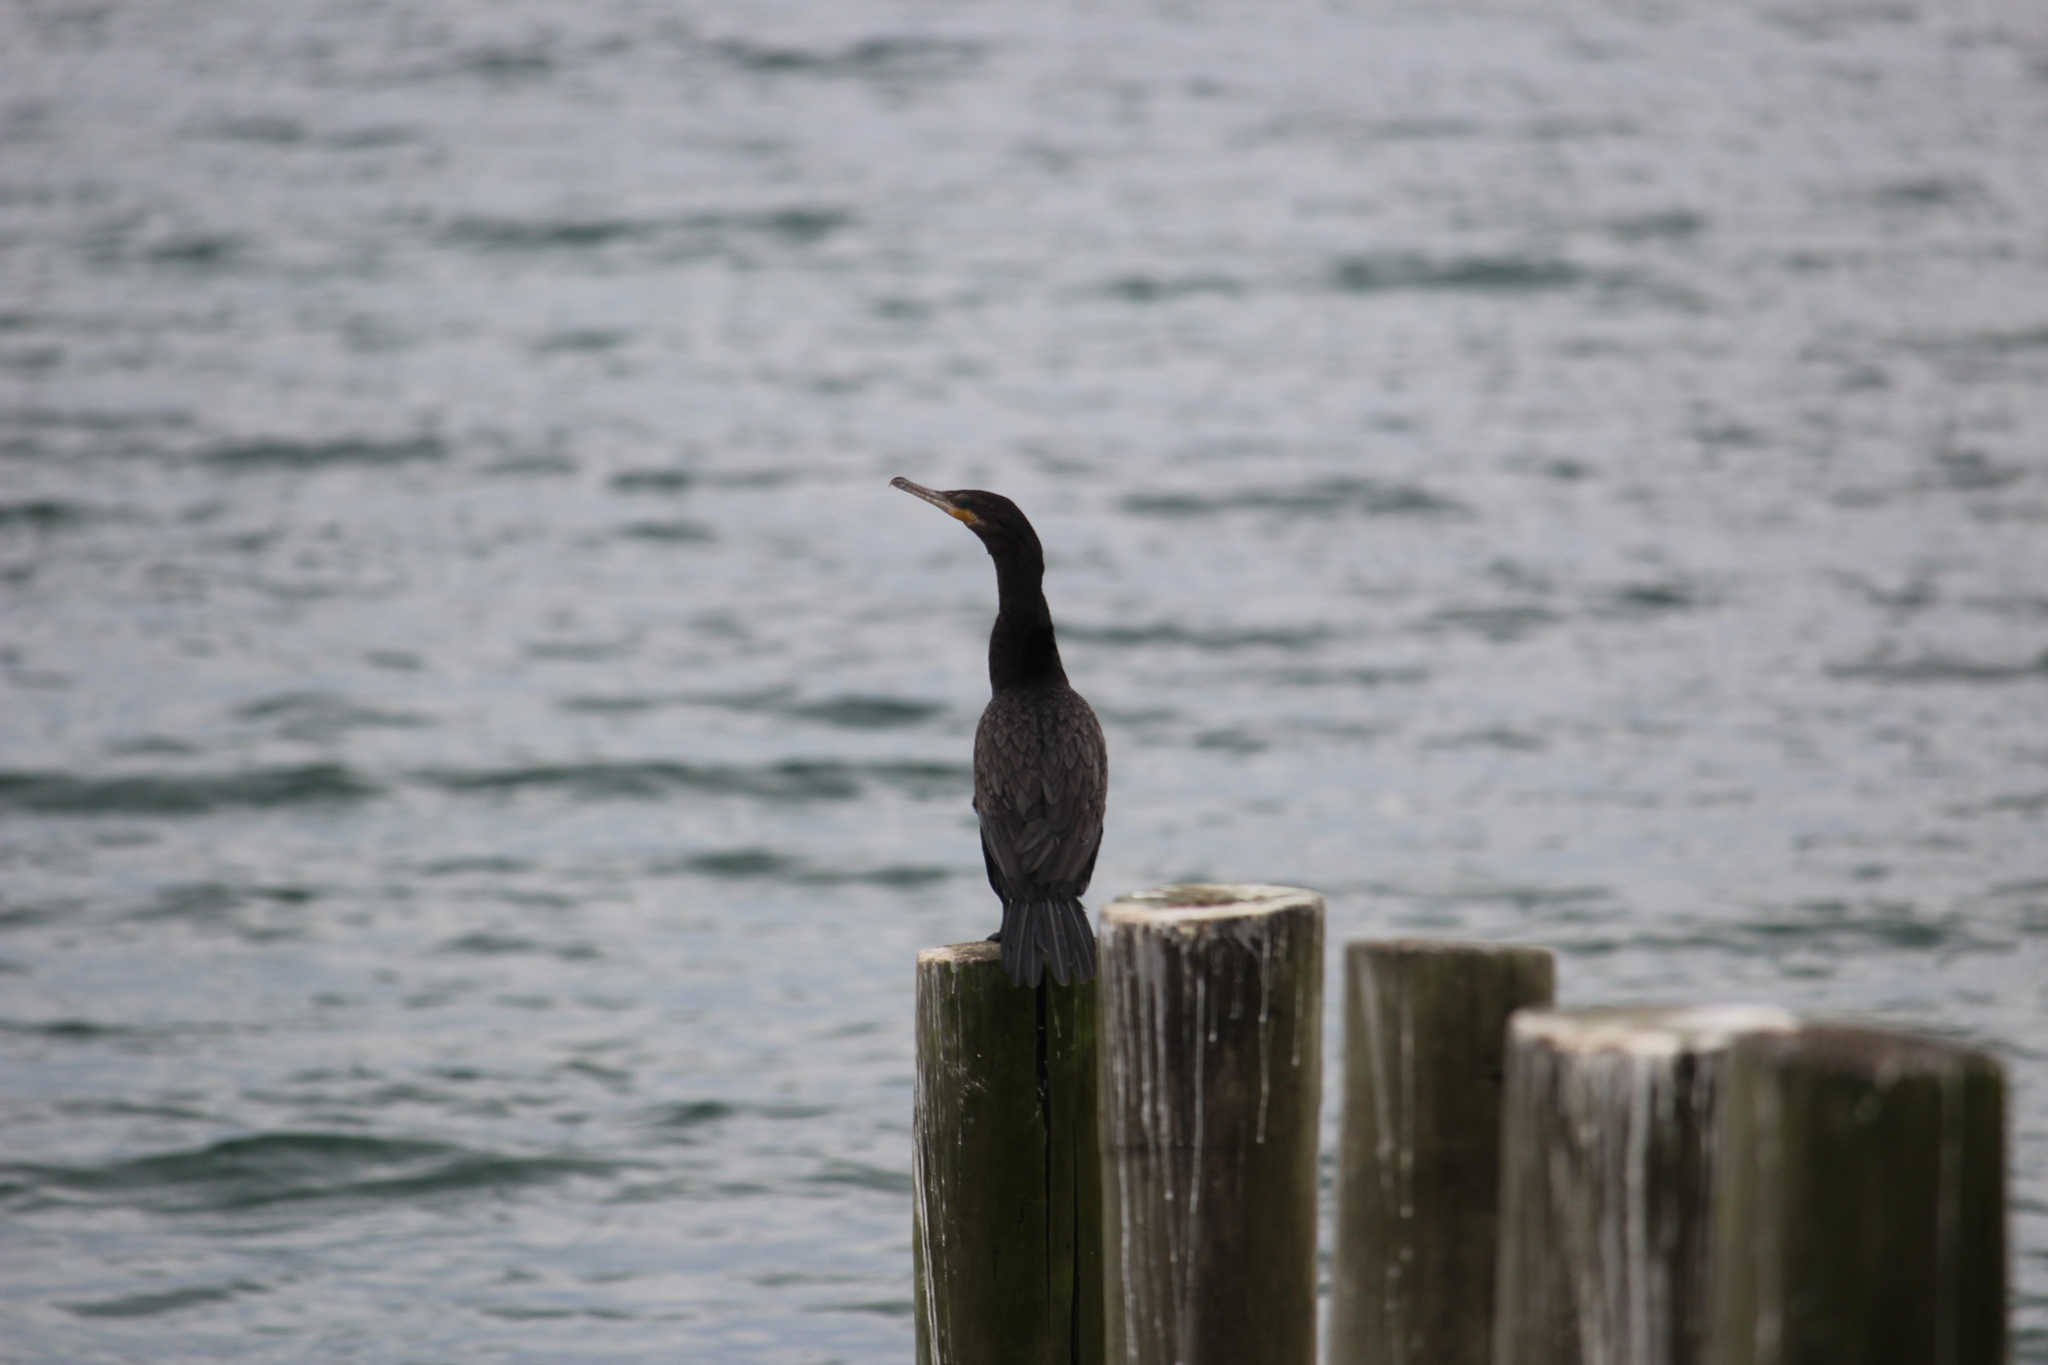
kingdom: Animalia
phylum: Chordata
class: Aves
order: Suliformes
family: Phalacrocoracidae
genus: Phalacrocorax
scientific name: Phalacrocorax brasilianus
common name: Neotropic cormorant
